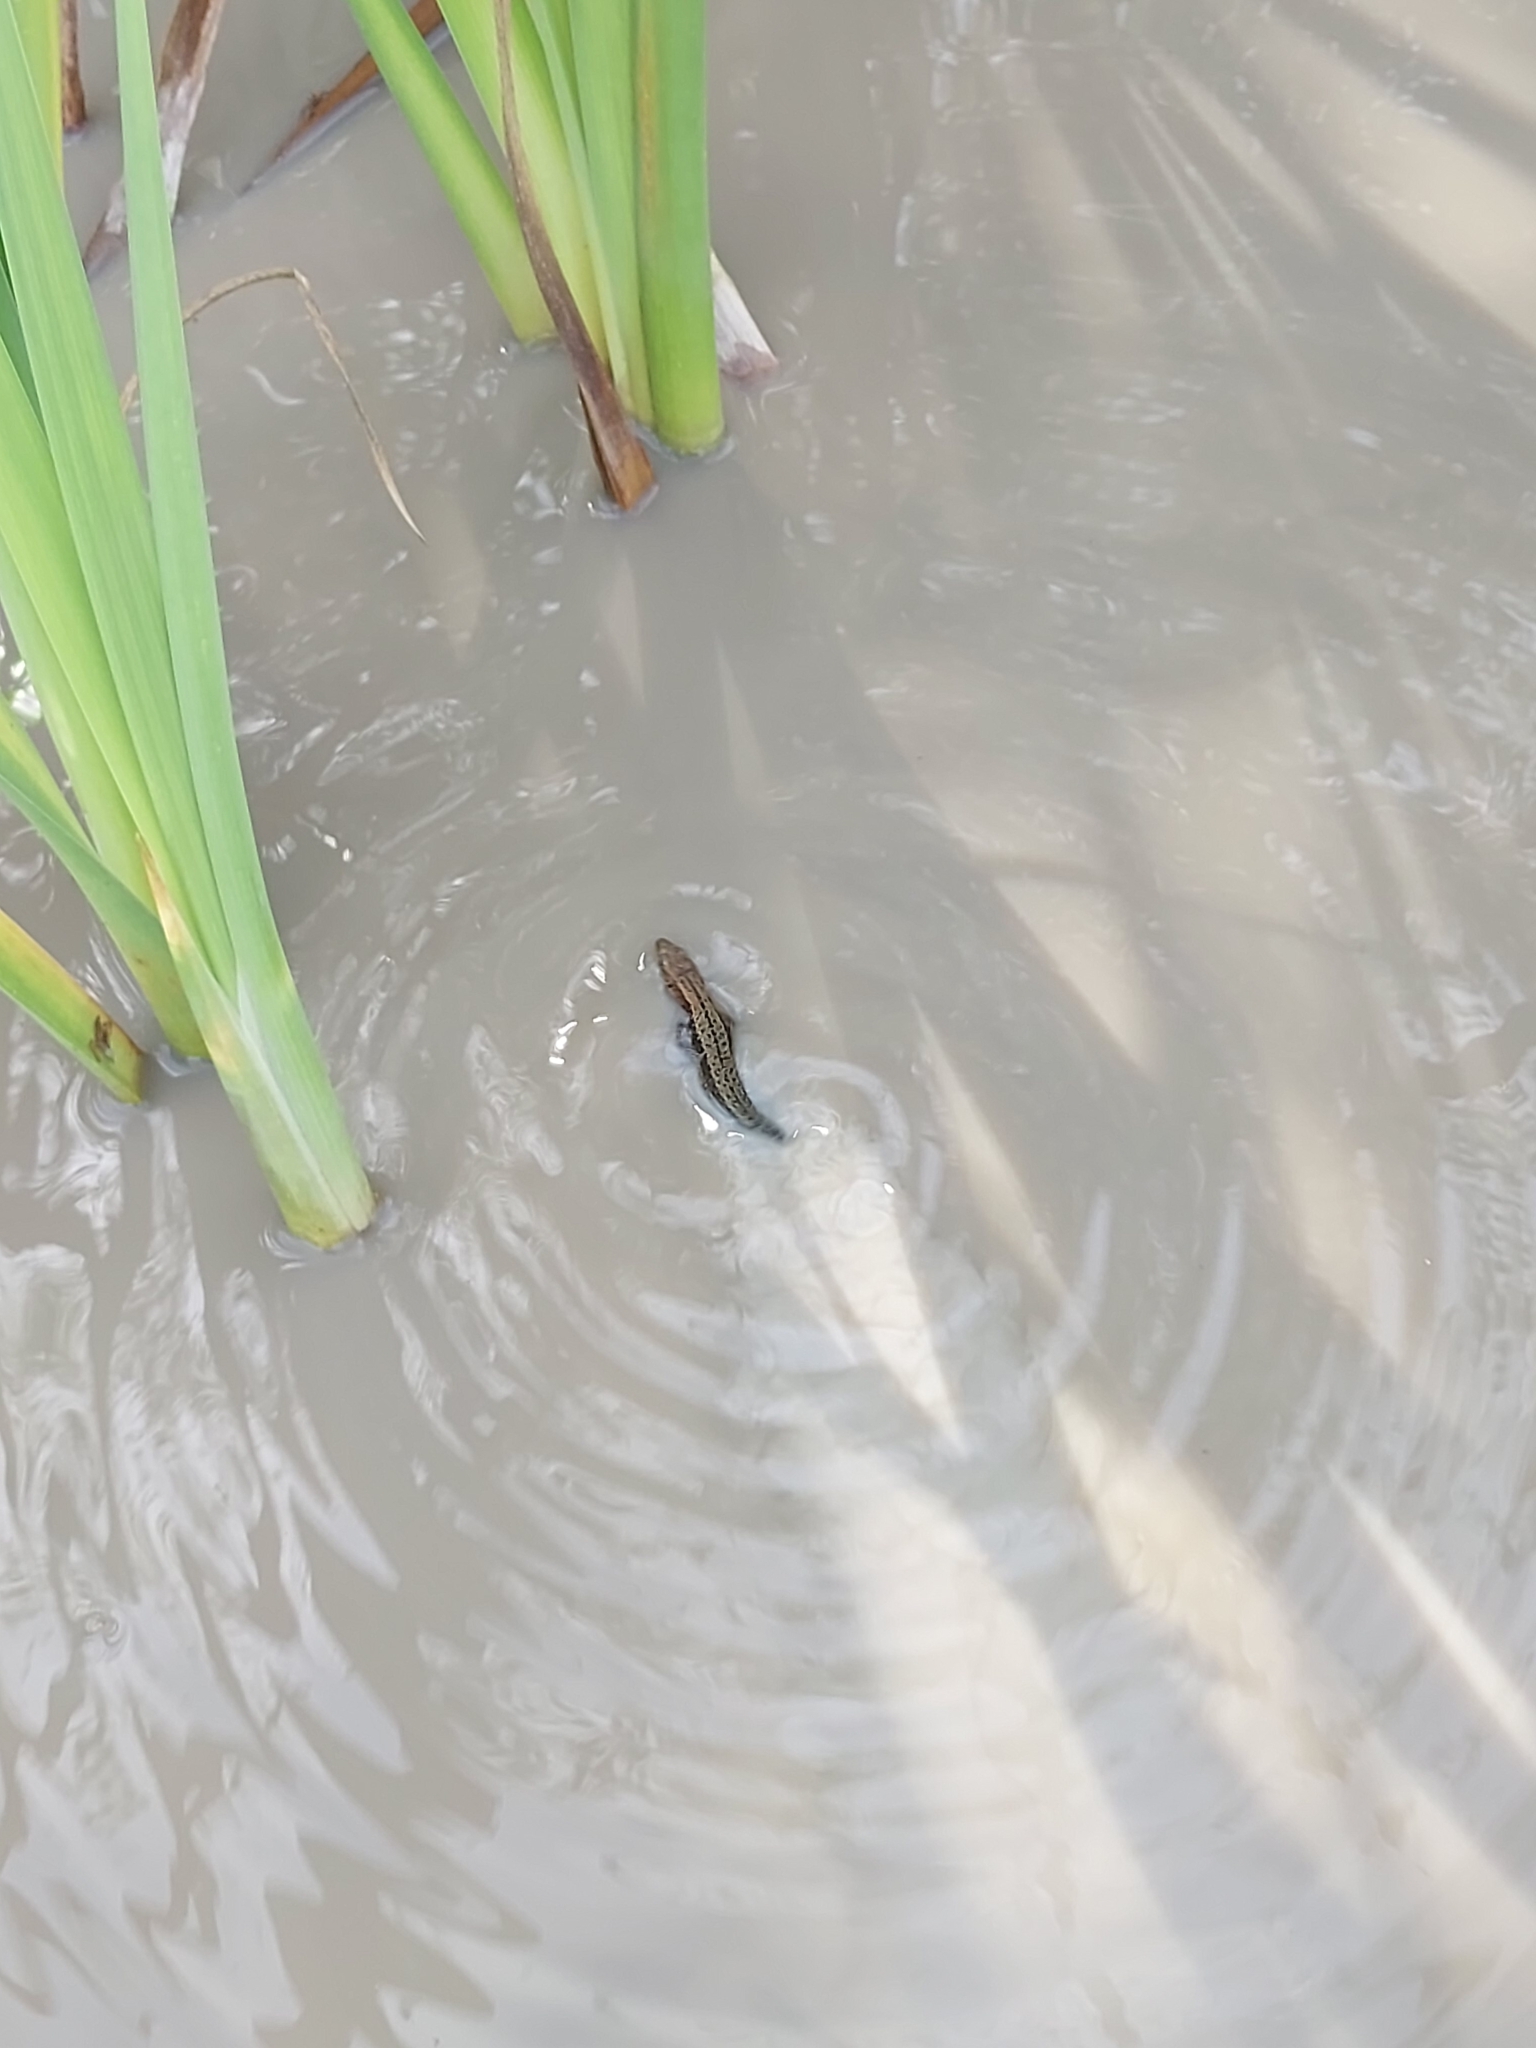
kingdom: Animalia
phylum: Chordata
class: Squamata
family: Lacertidae
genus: Zootoca
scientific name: Zootoca vivipara
